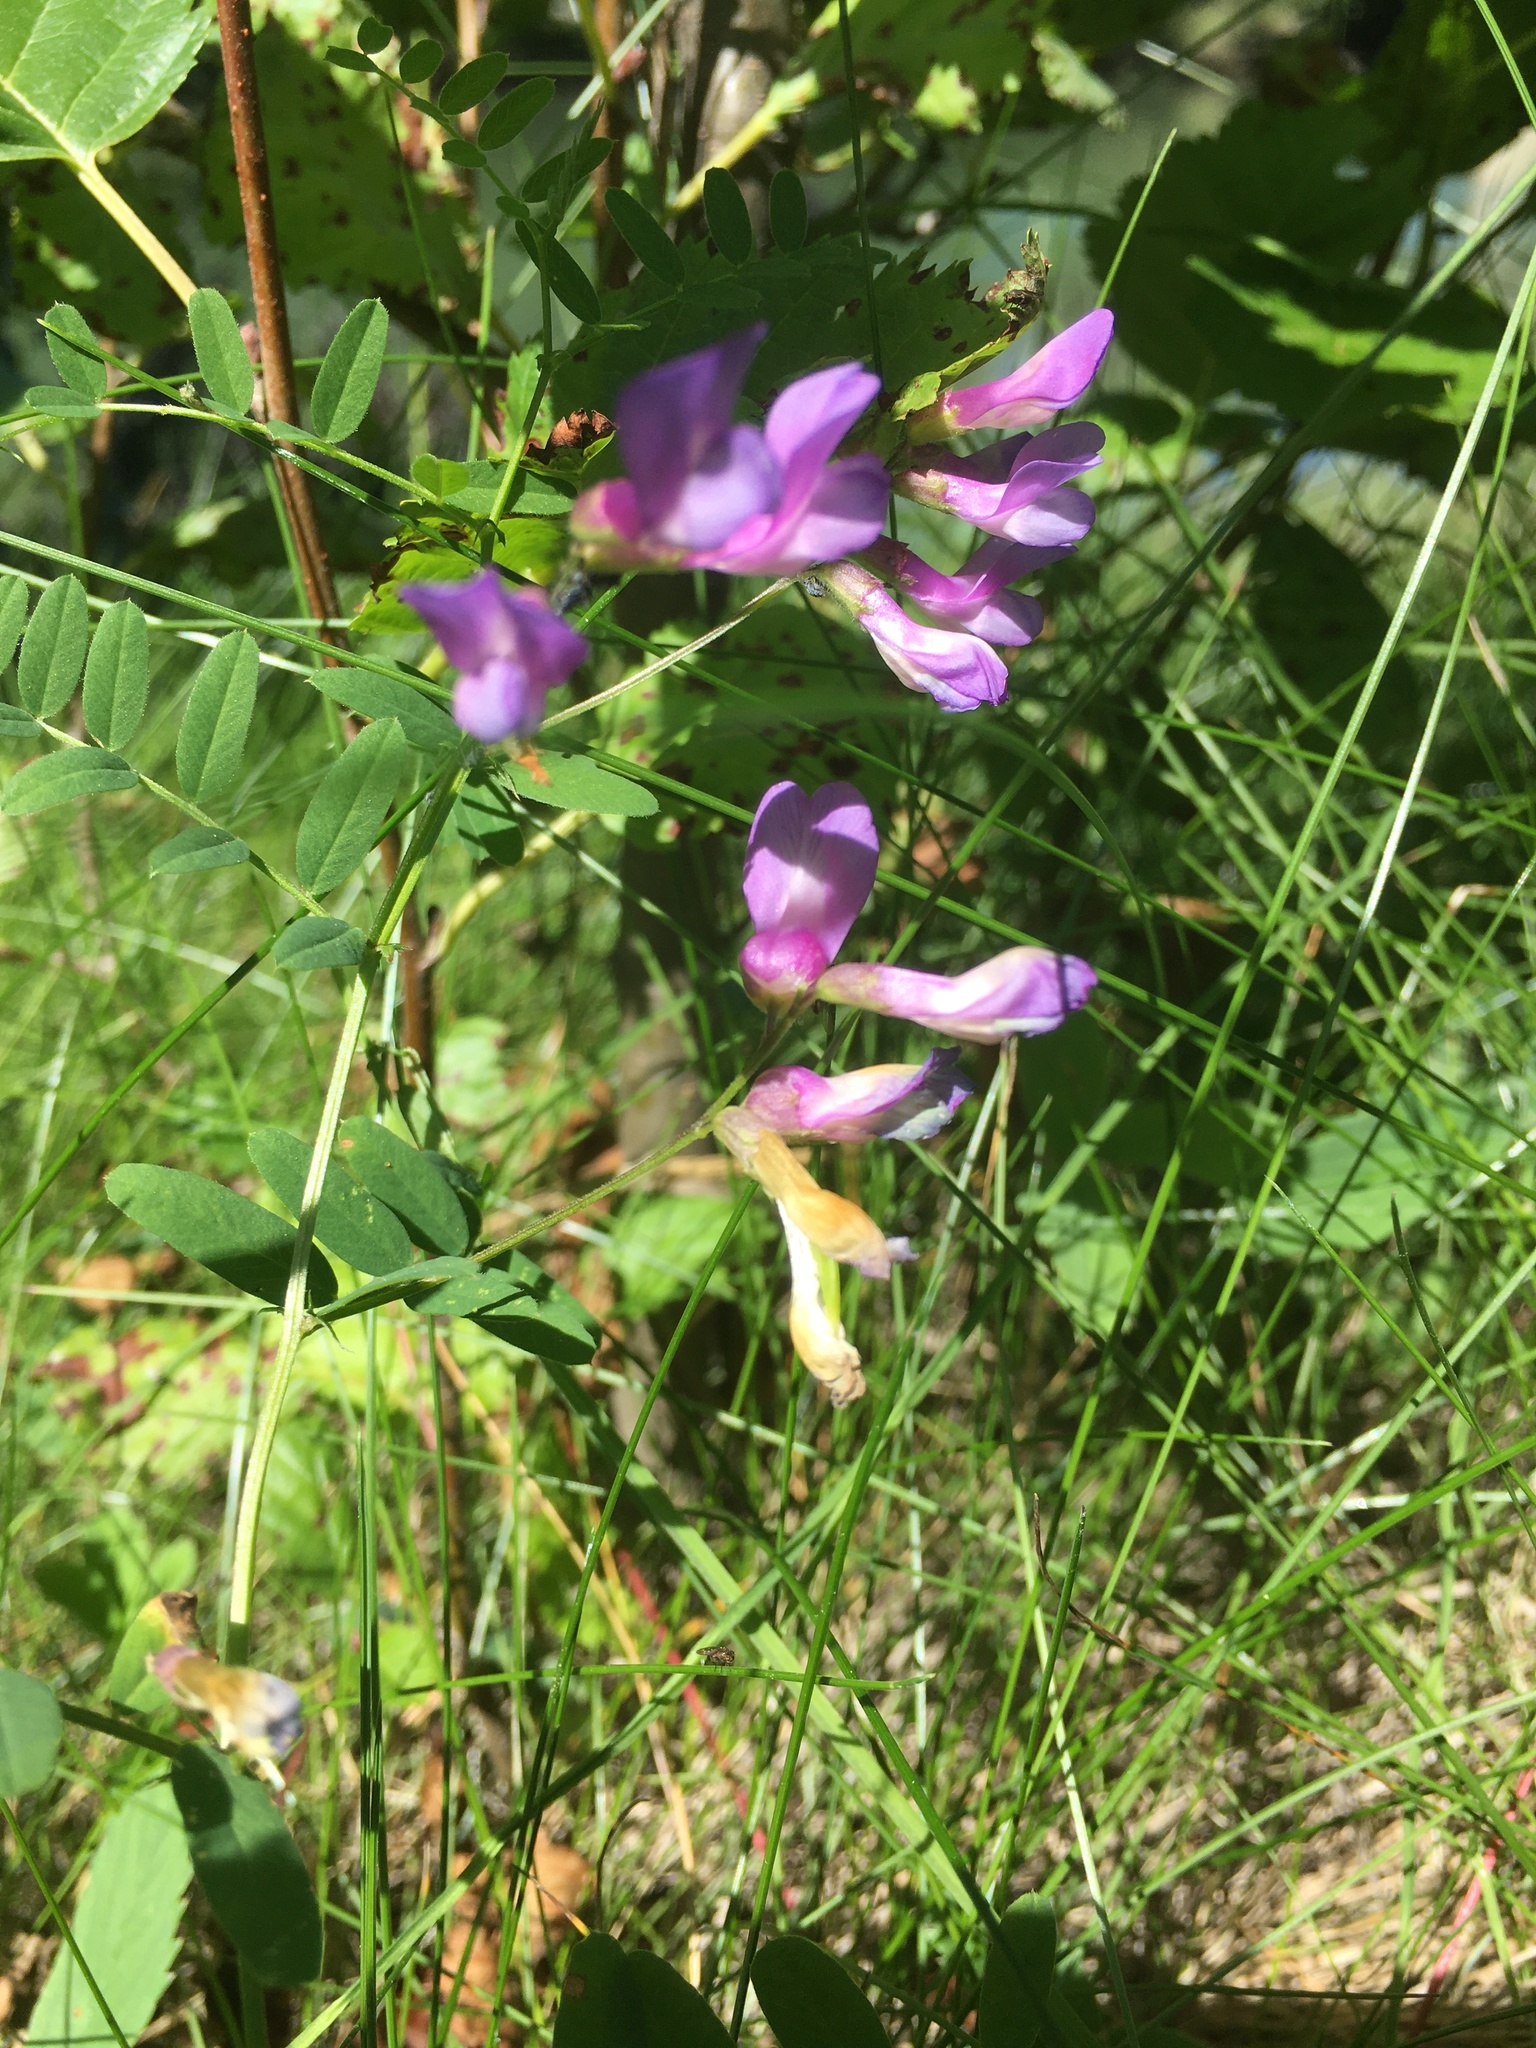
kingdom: Plantae
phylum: Tracheophyta
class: Magnoliopsida
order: Fabales
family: Fabaceae
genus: Vicia
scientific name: Vicia americana
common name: American vetch
